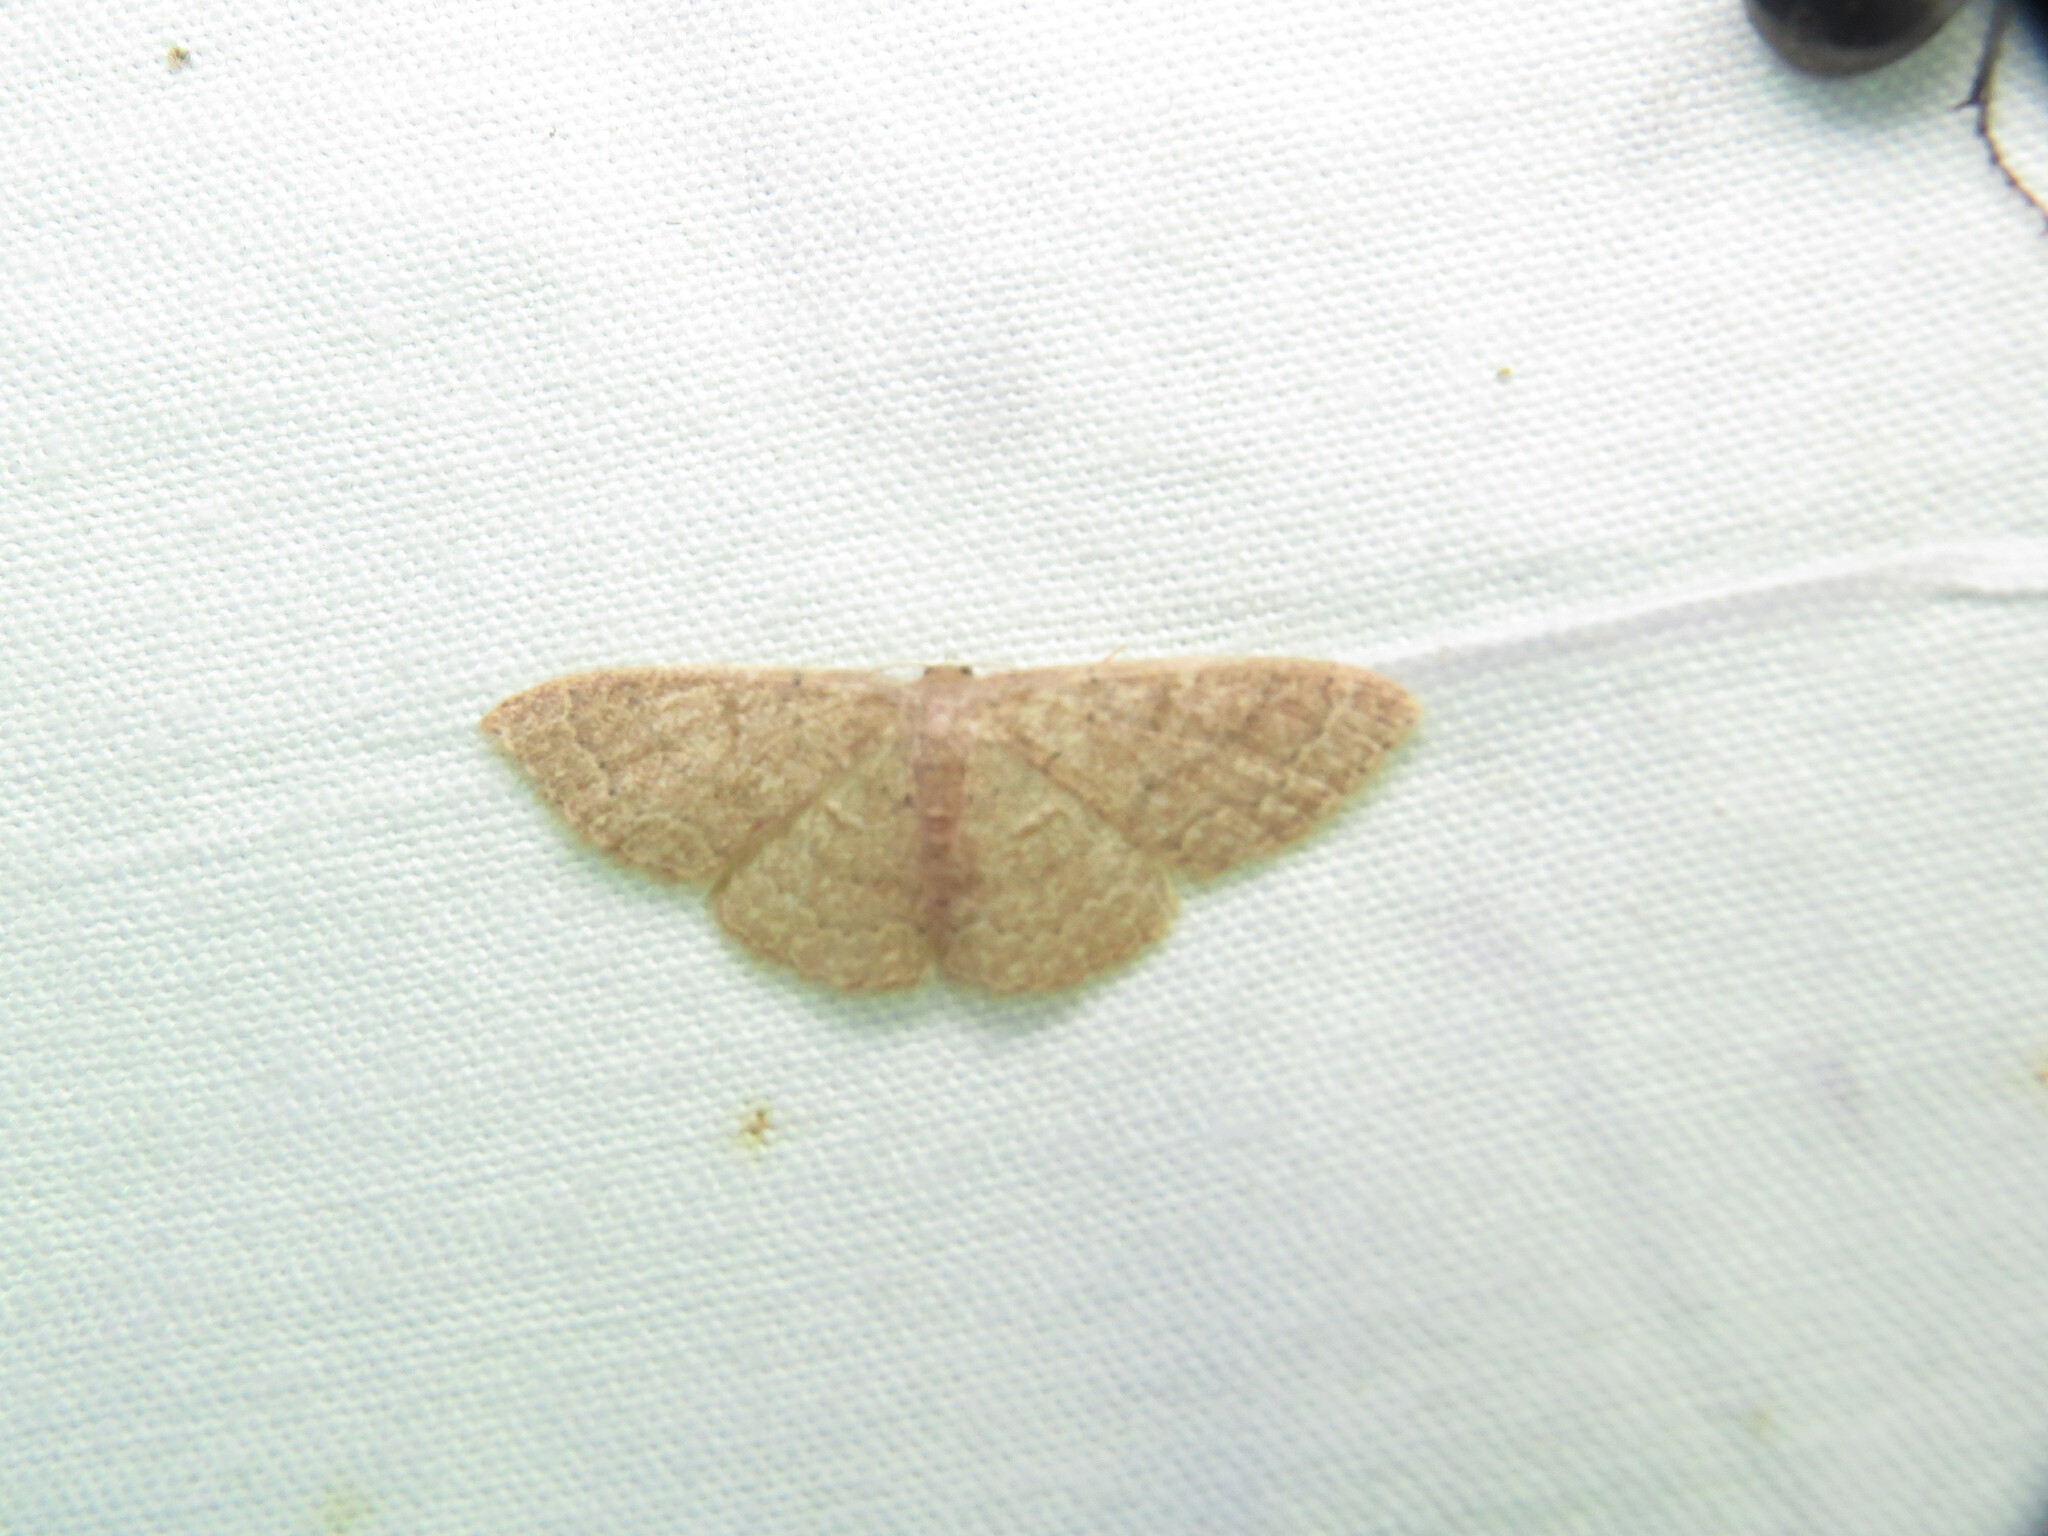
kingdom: Animalia
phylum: Arthropoda
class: Insecta
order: Lepidoptera
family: Geometridae
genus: Pleuroprucha
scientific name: Pleuroprucha insulsaria
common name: Common tan wave
